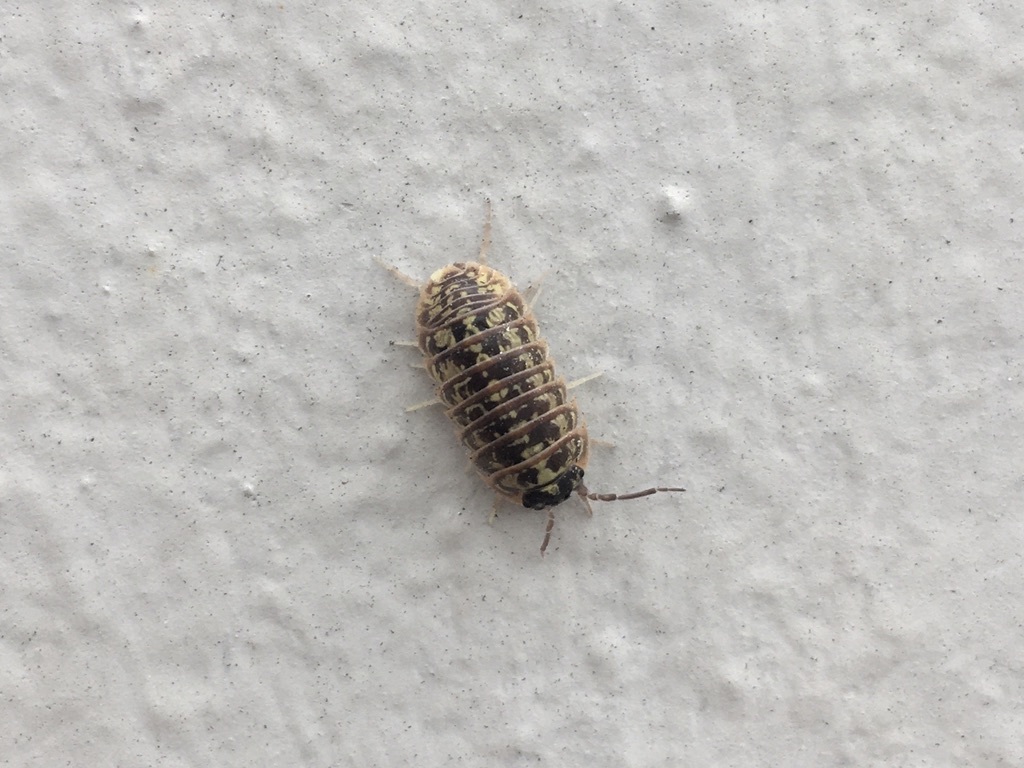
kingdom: Animalia
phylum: Arthropoda
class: Malacostraca
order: Isopoda
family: Armadillidiidae
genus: Armadillidium
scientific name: Armadillidium versicolor
